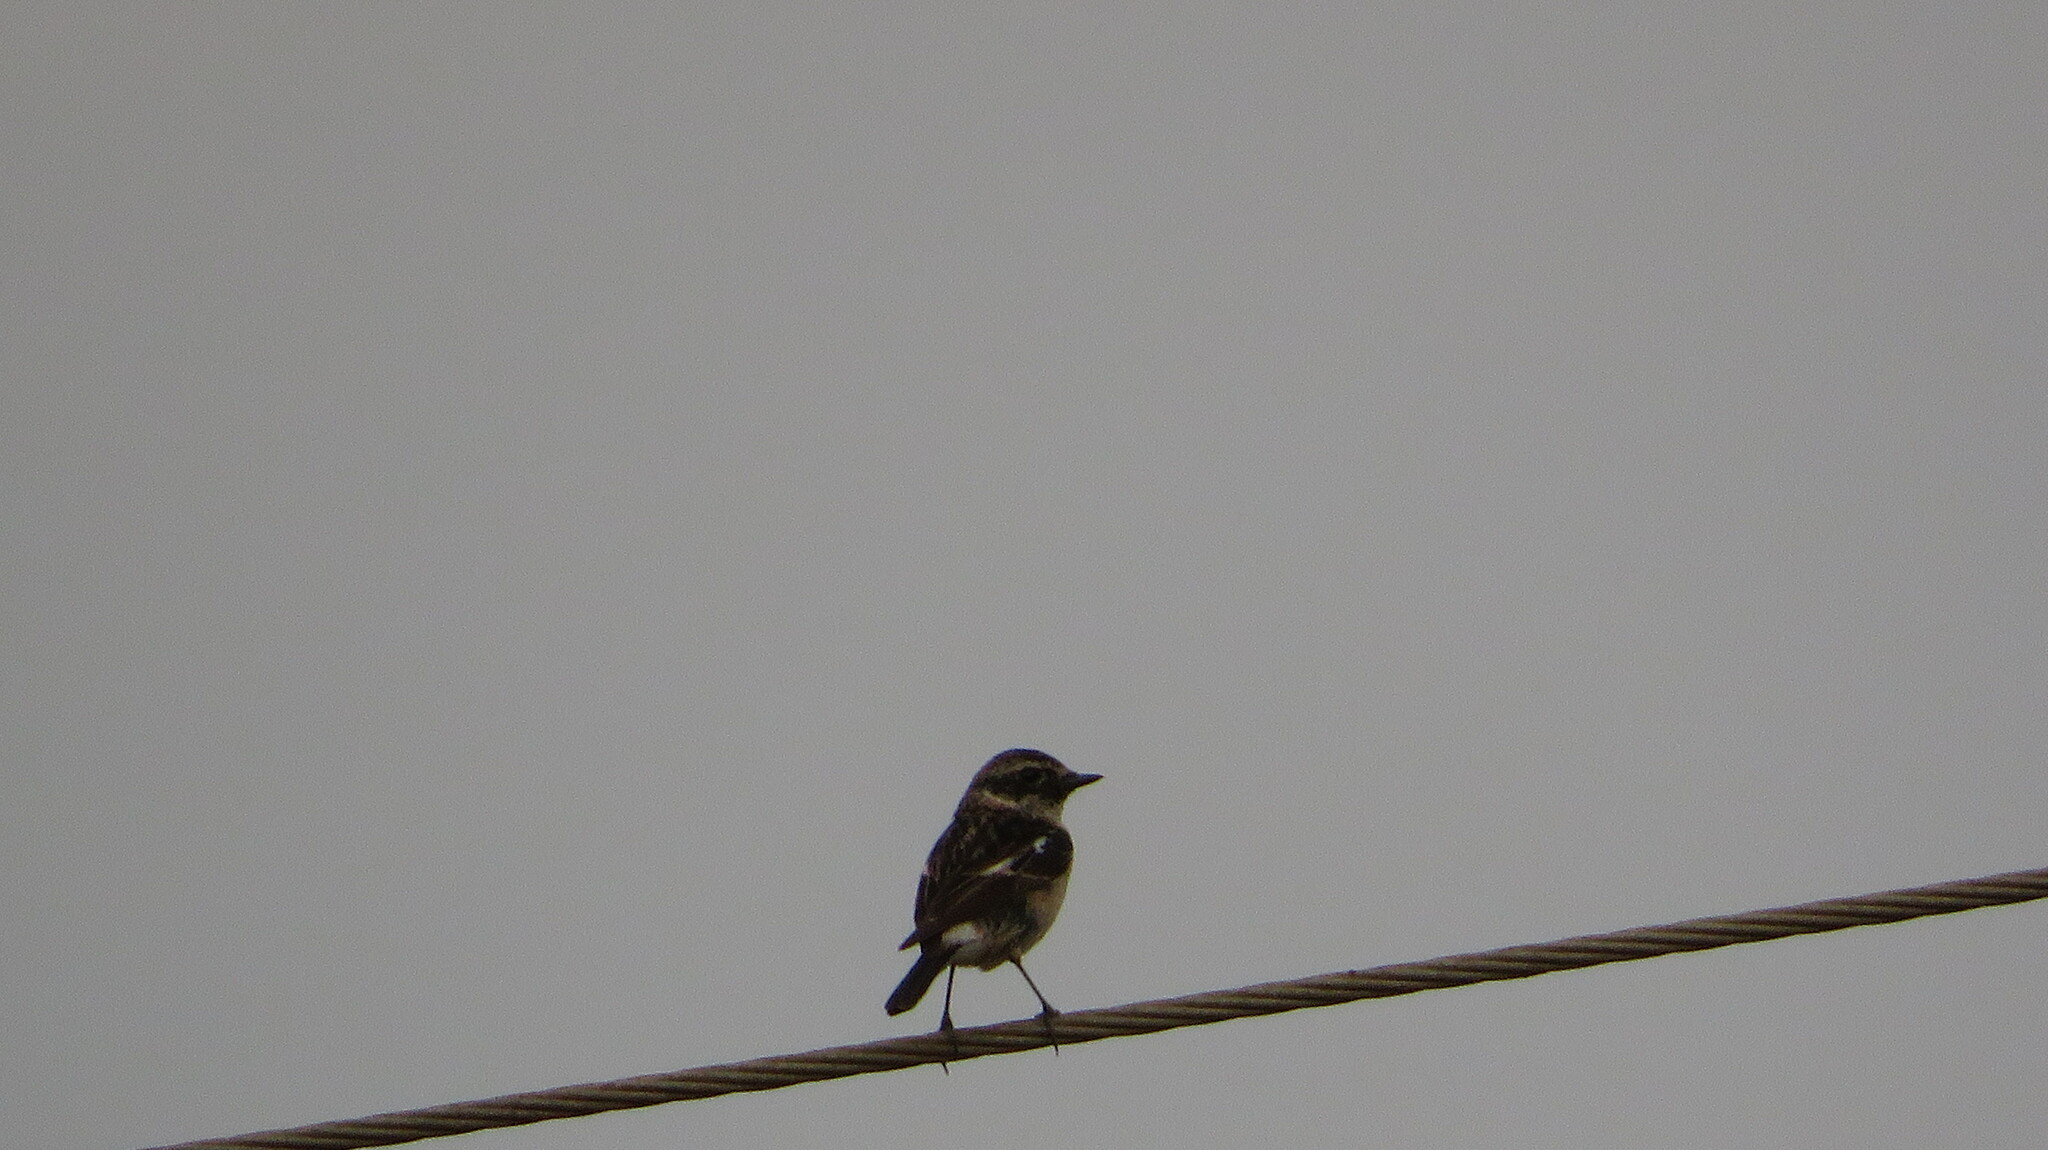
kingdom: Animalia
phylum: Chordata
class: Aves
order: Passeriformes
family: Muscicapidae
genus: Saxicola
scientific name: Saxicola stejnegeri
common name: Stejneger's stonechat
